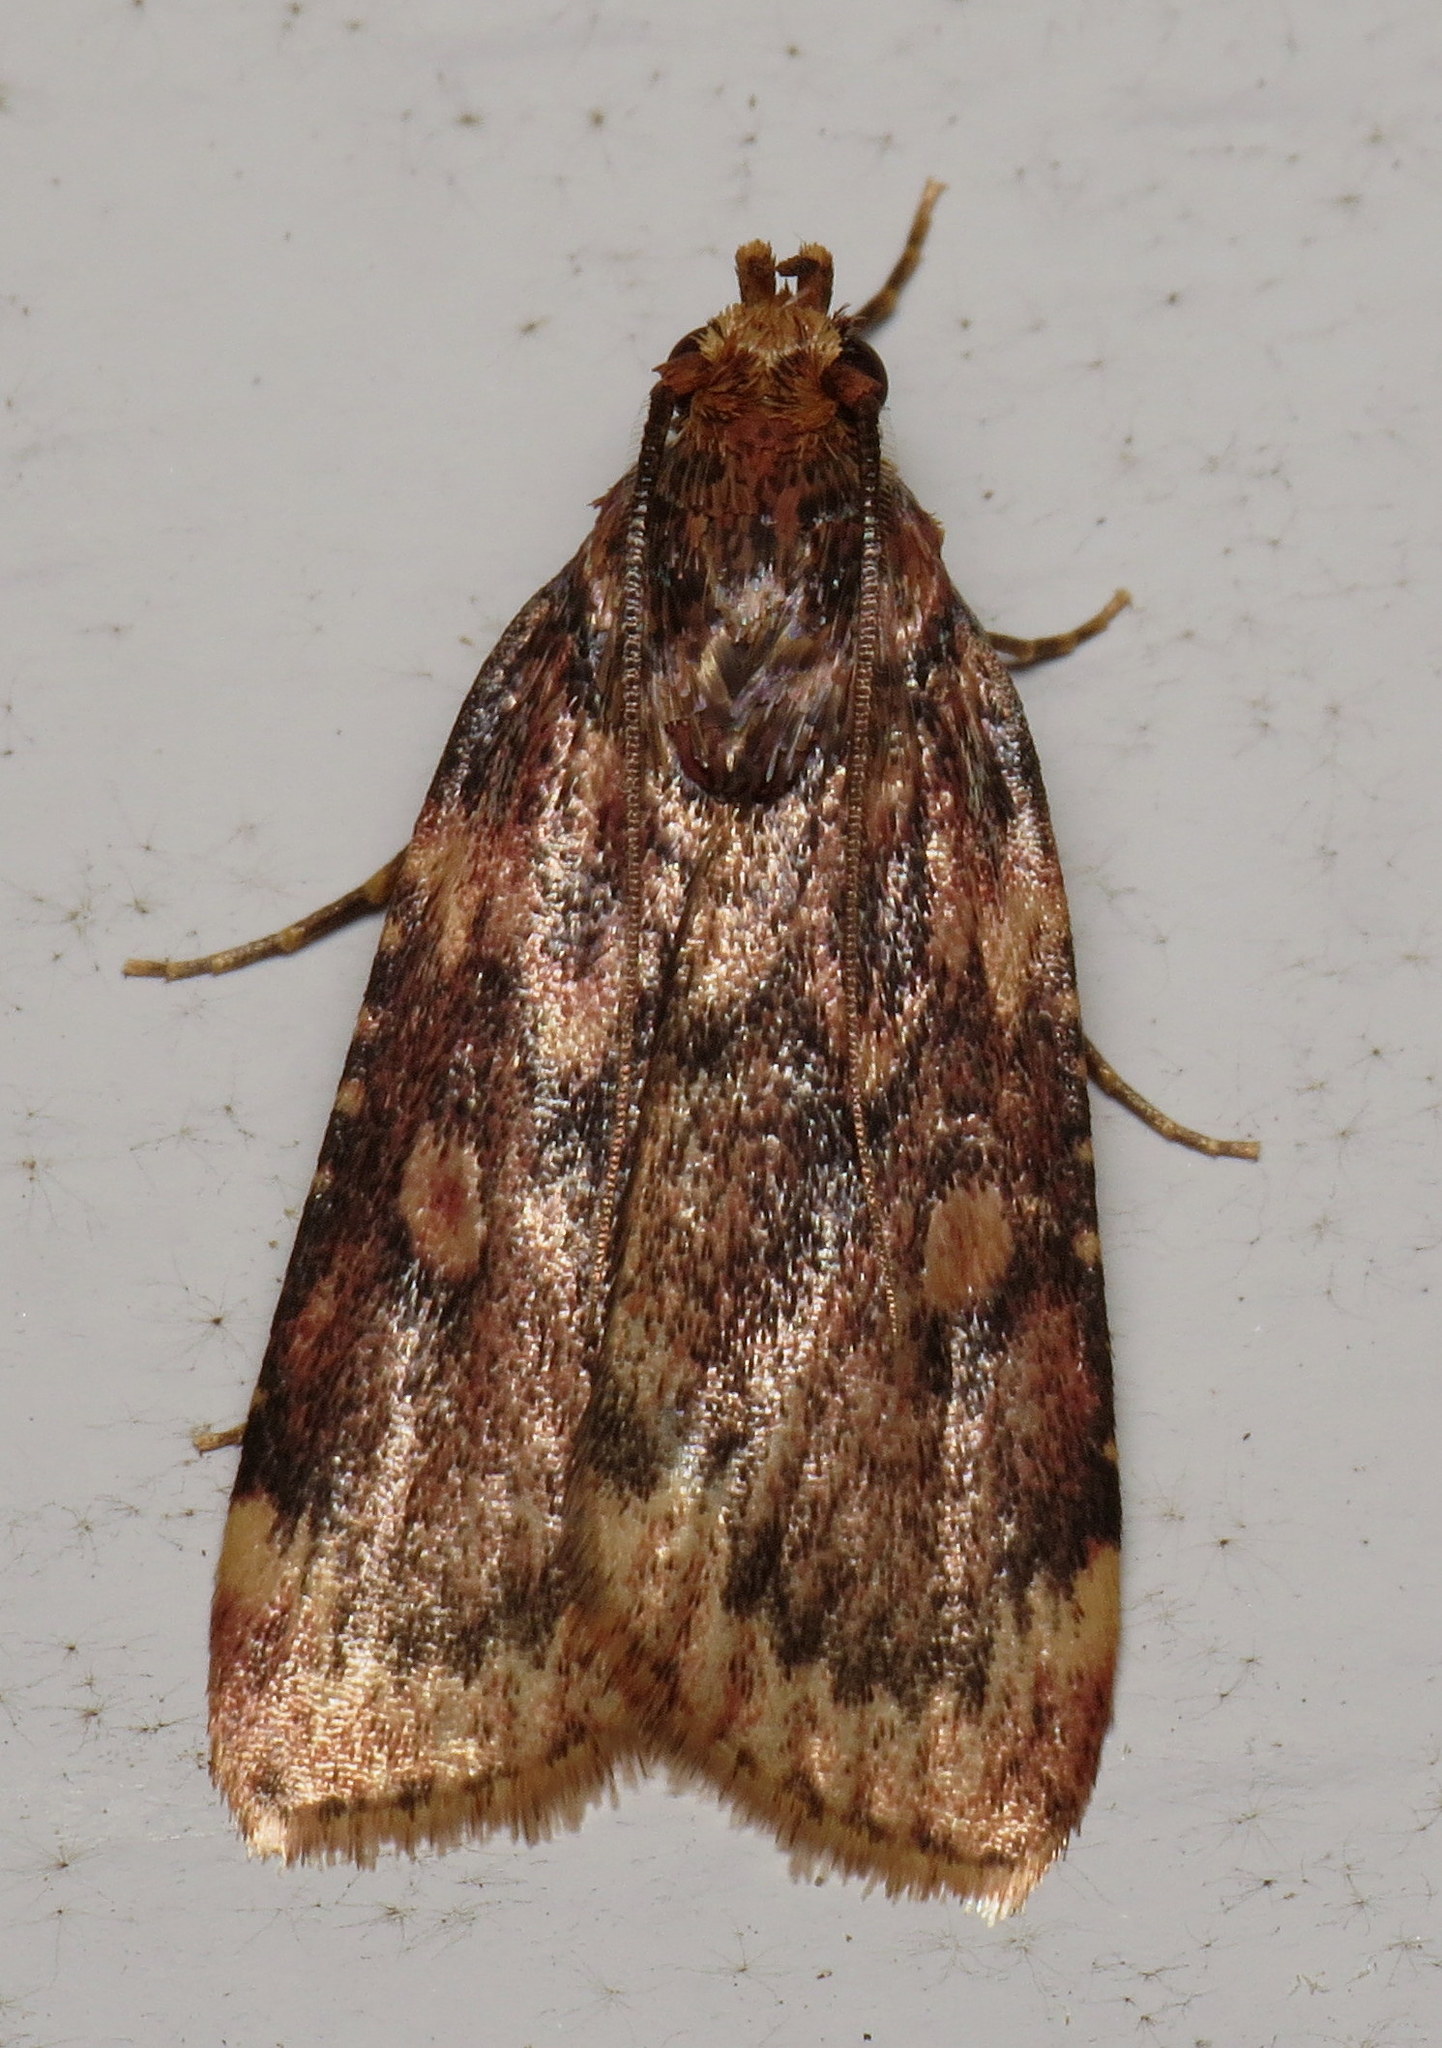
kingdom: Animalia
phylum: Arthropoda
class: Insecta
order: Lepidoptera
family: Pyralidae
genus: Aglossa
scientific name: Aglossa cuprina
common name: Grease moth
